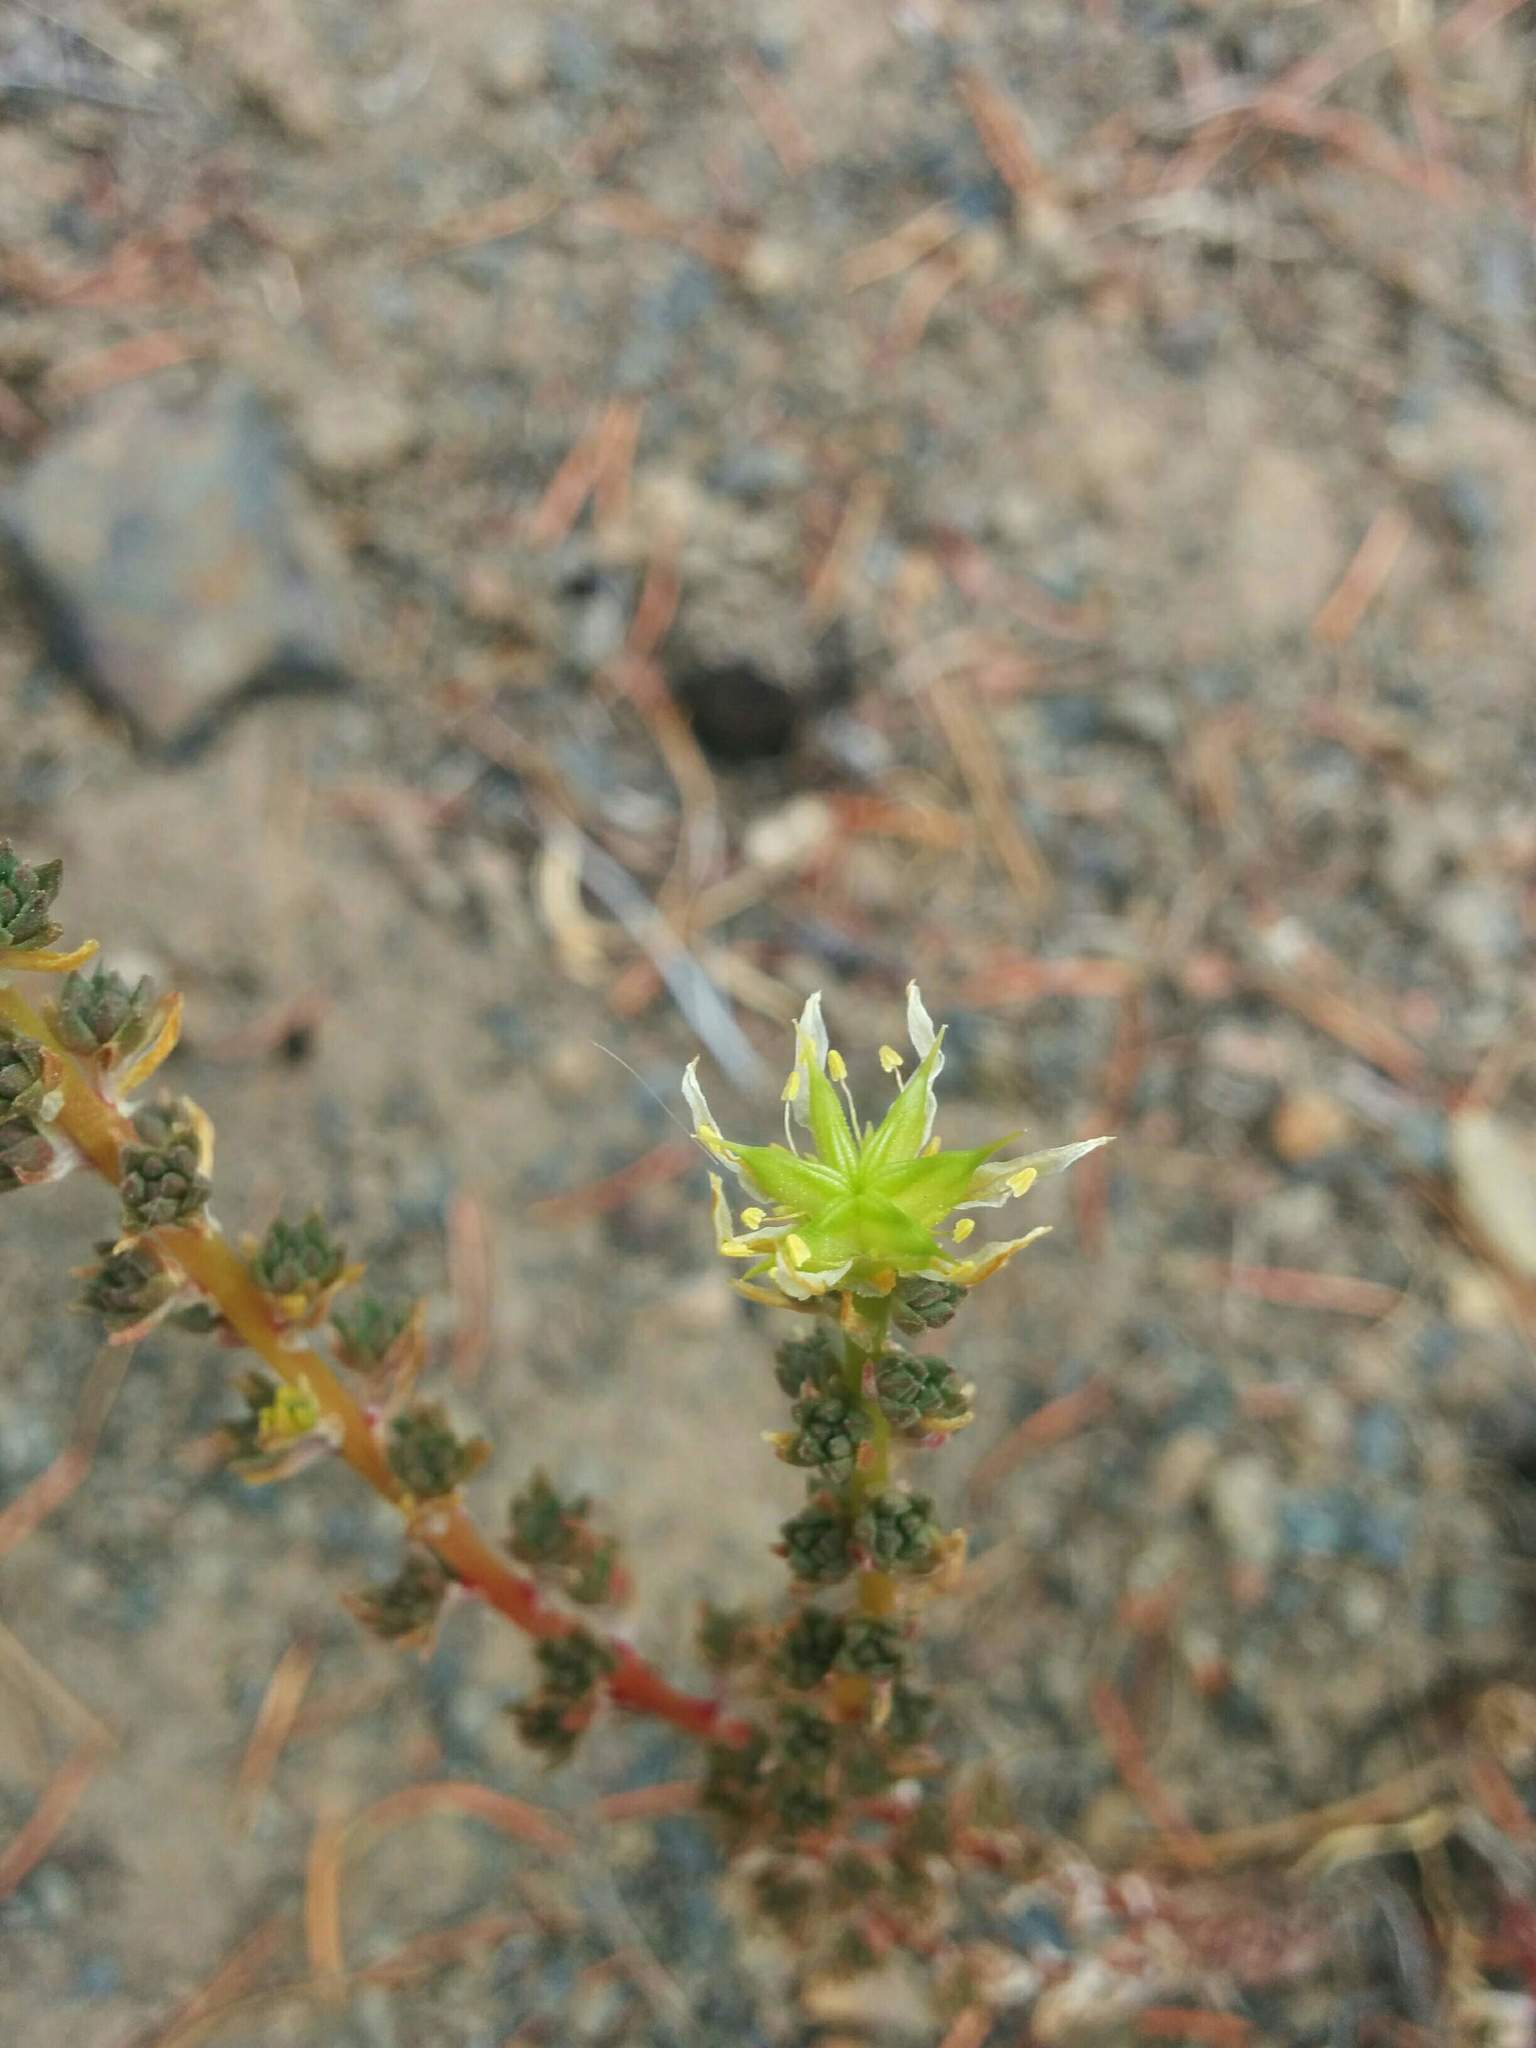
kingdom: Plantae
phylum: Tracheophyta
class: Magnoliopsida
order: Saxifragales
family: Crassulaceae
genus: Sedum
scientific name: Sedum stenopetalum
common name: Narrow-petaled stonecrop
